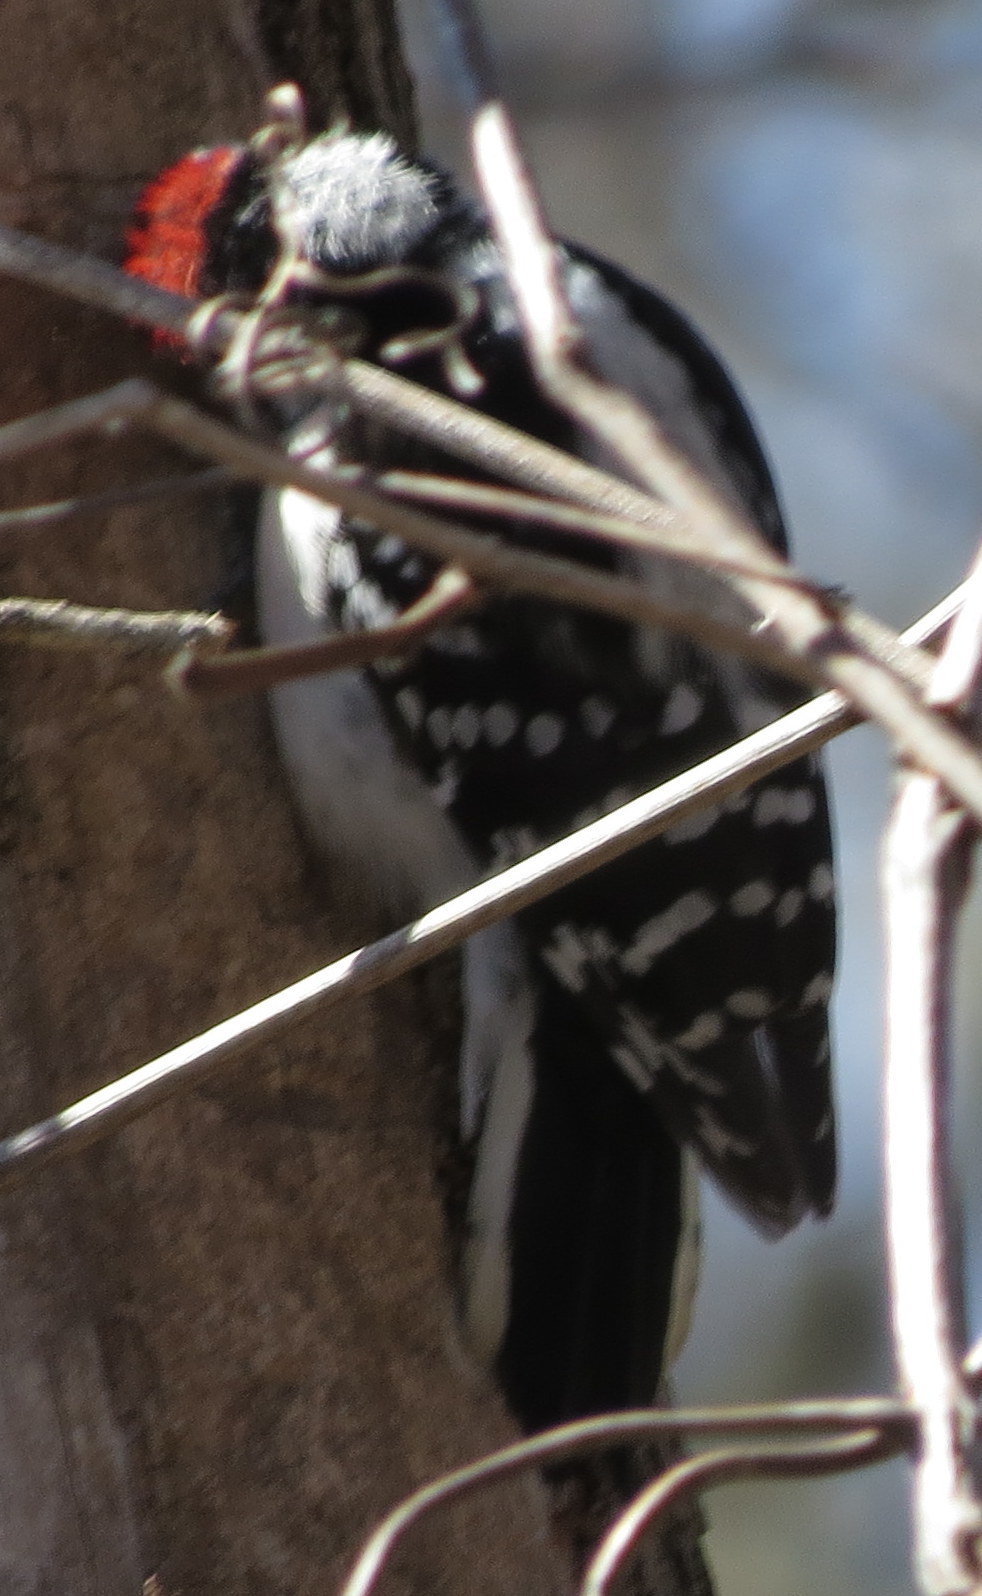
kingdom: Animalia
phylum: Chordata
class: Aves
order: Piciformes
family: Picidae
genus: Dryobates
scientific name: Dryobates pubescens
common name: Downy woodpecker
